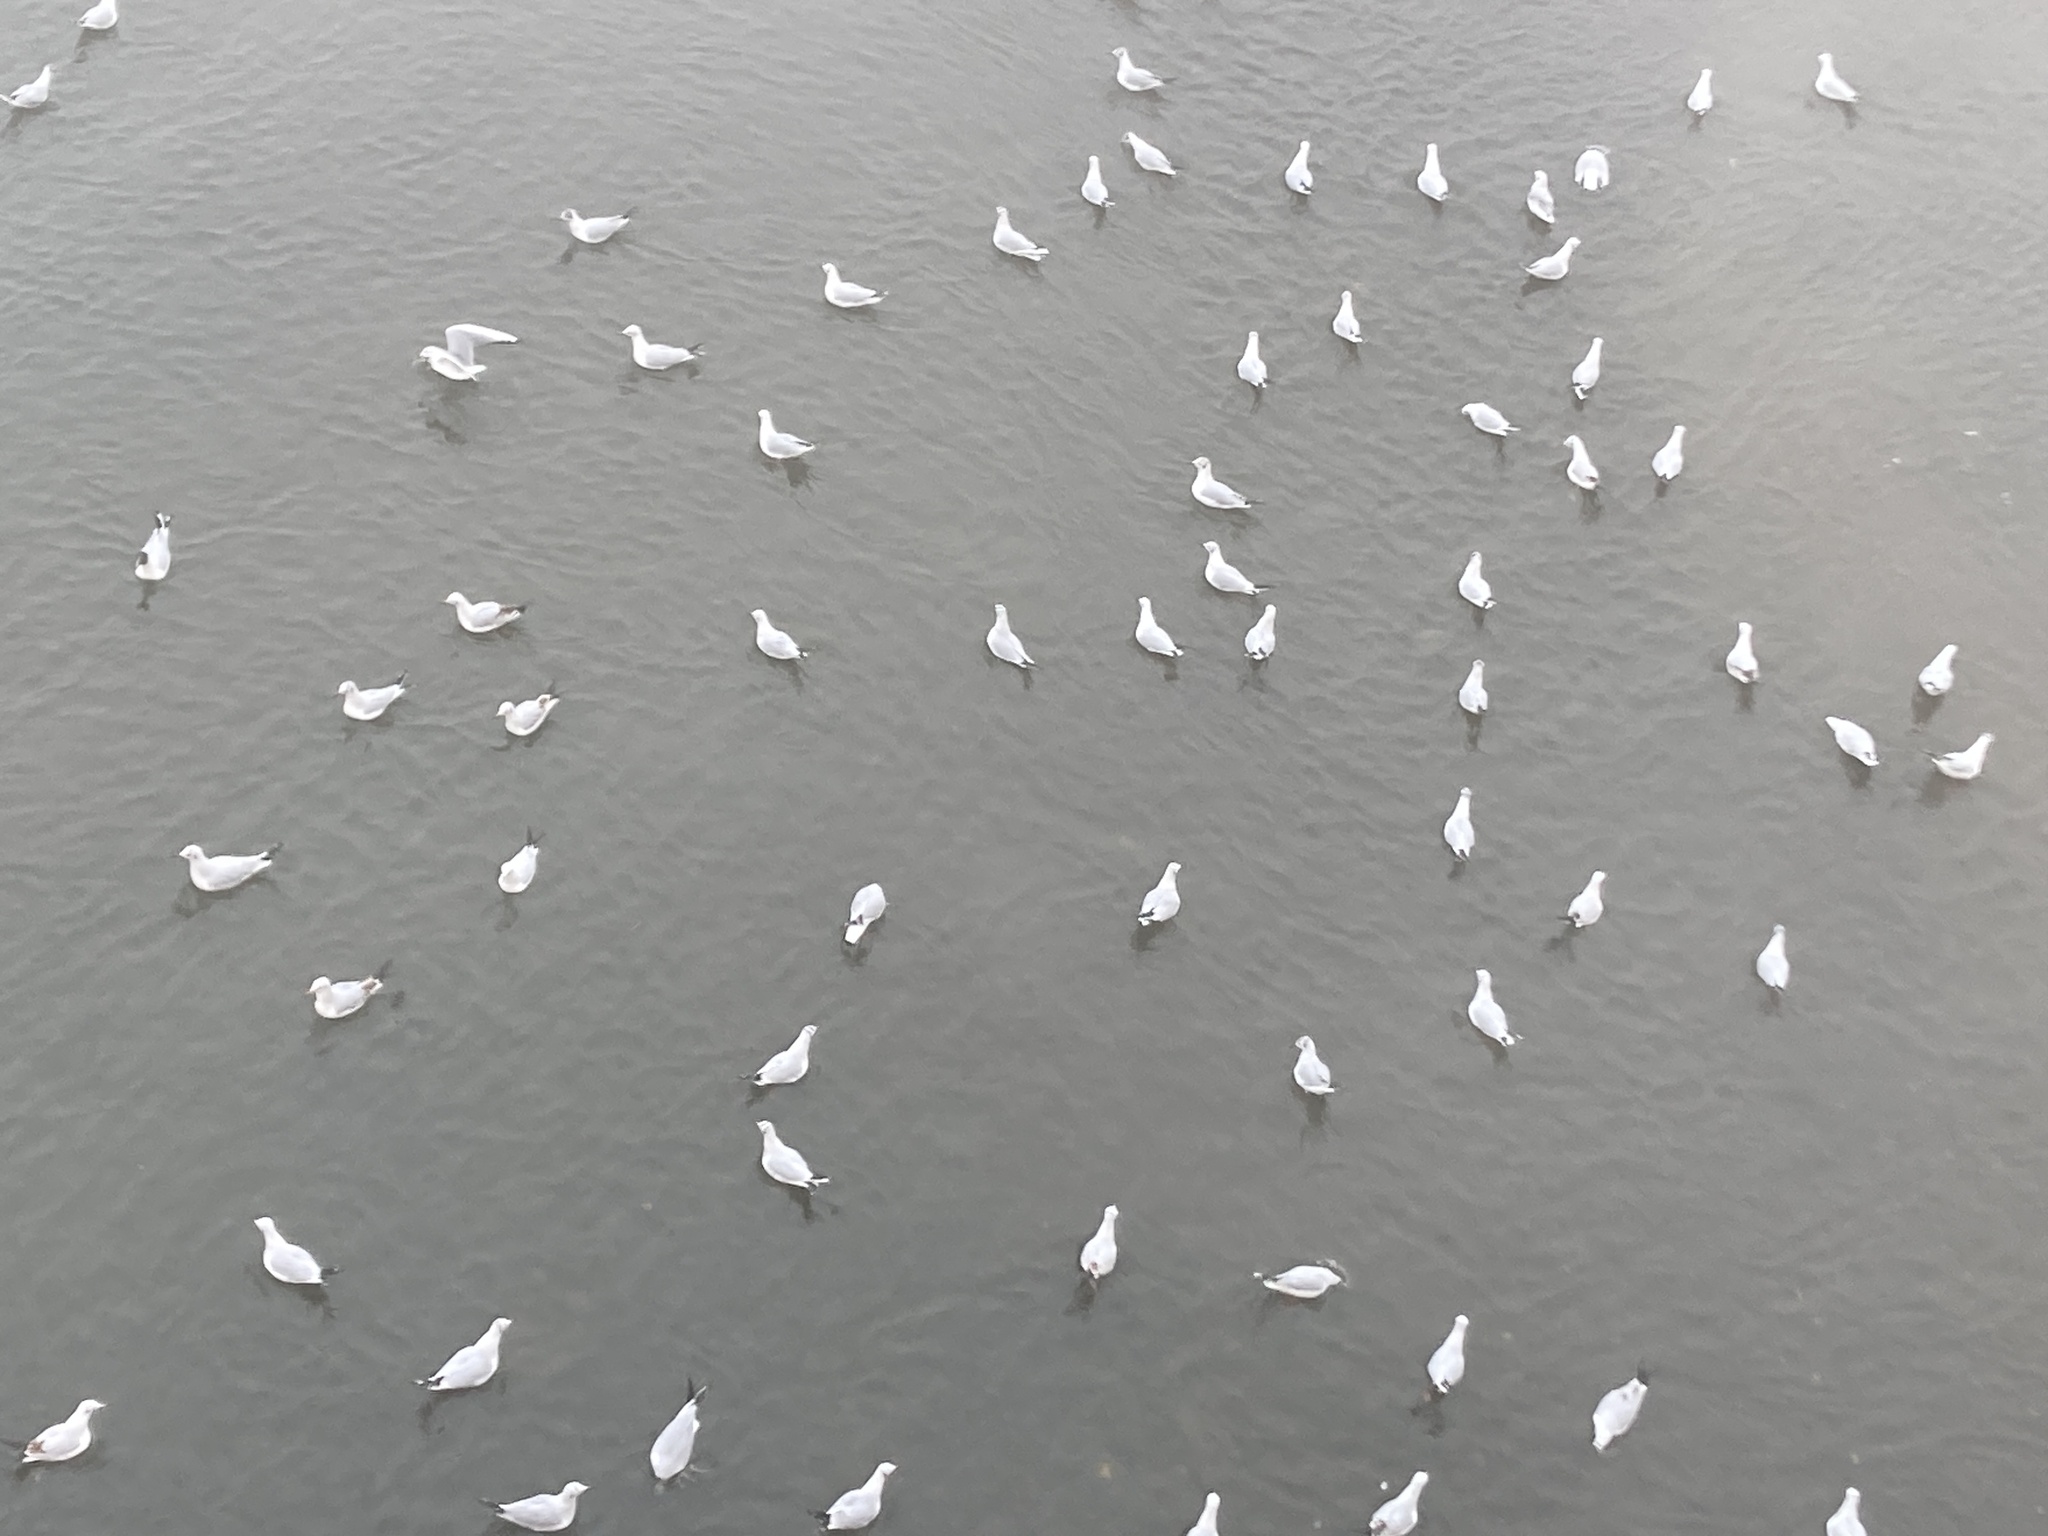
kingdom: Animalia
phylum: Chordata
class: Aves
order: Charadriiformes
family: Laridae
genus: Chroicocephalus
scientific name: Chroicocephalus ridibundus
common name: Black-headed gull
